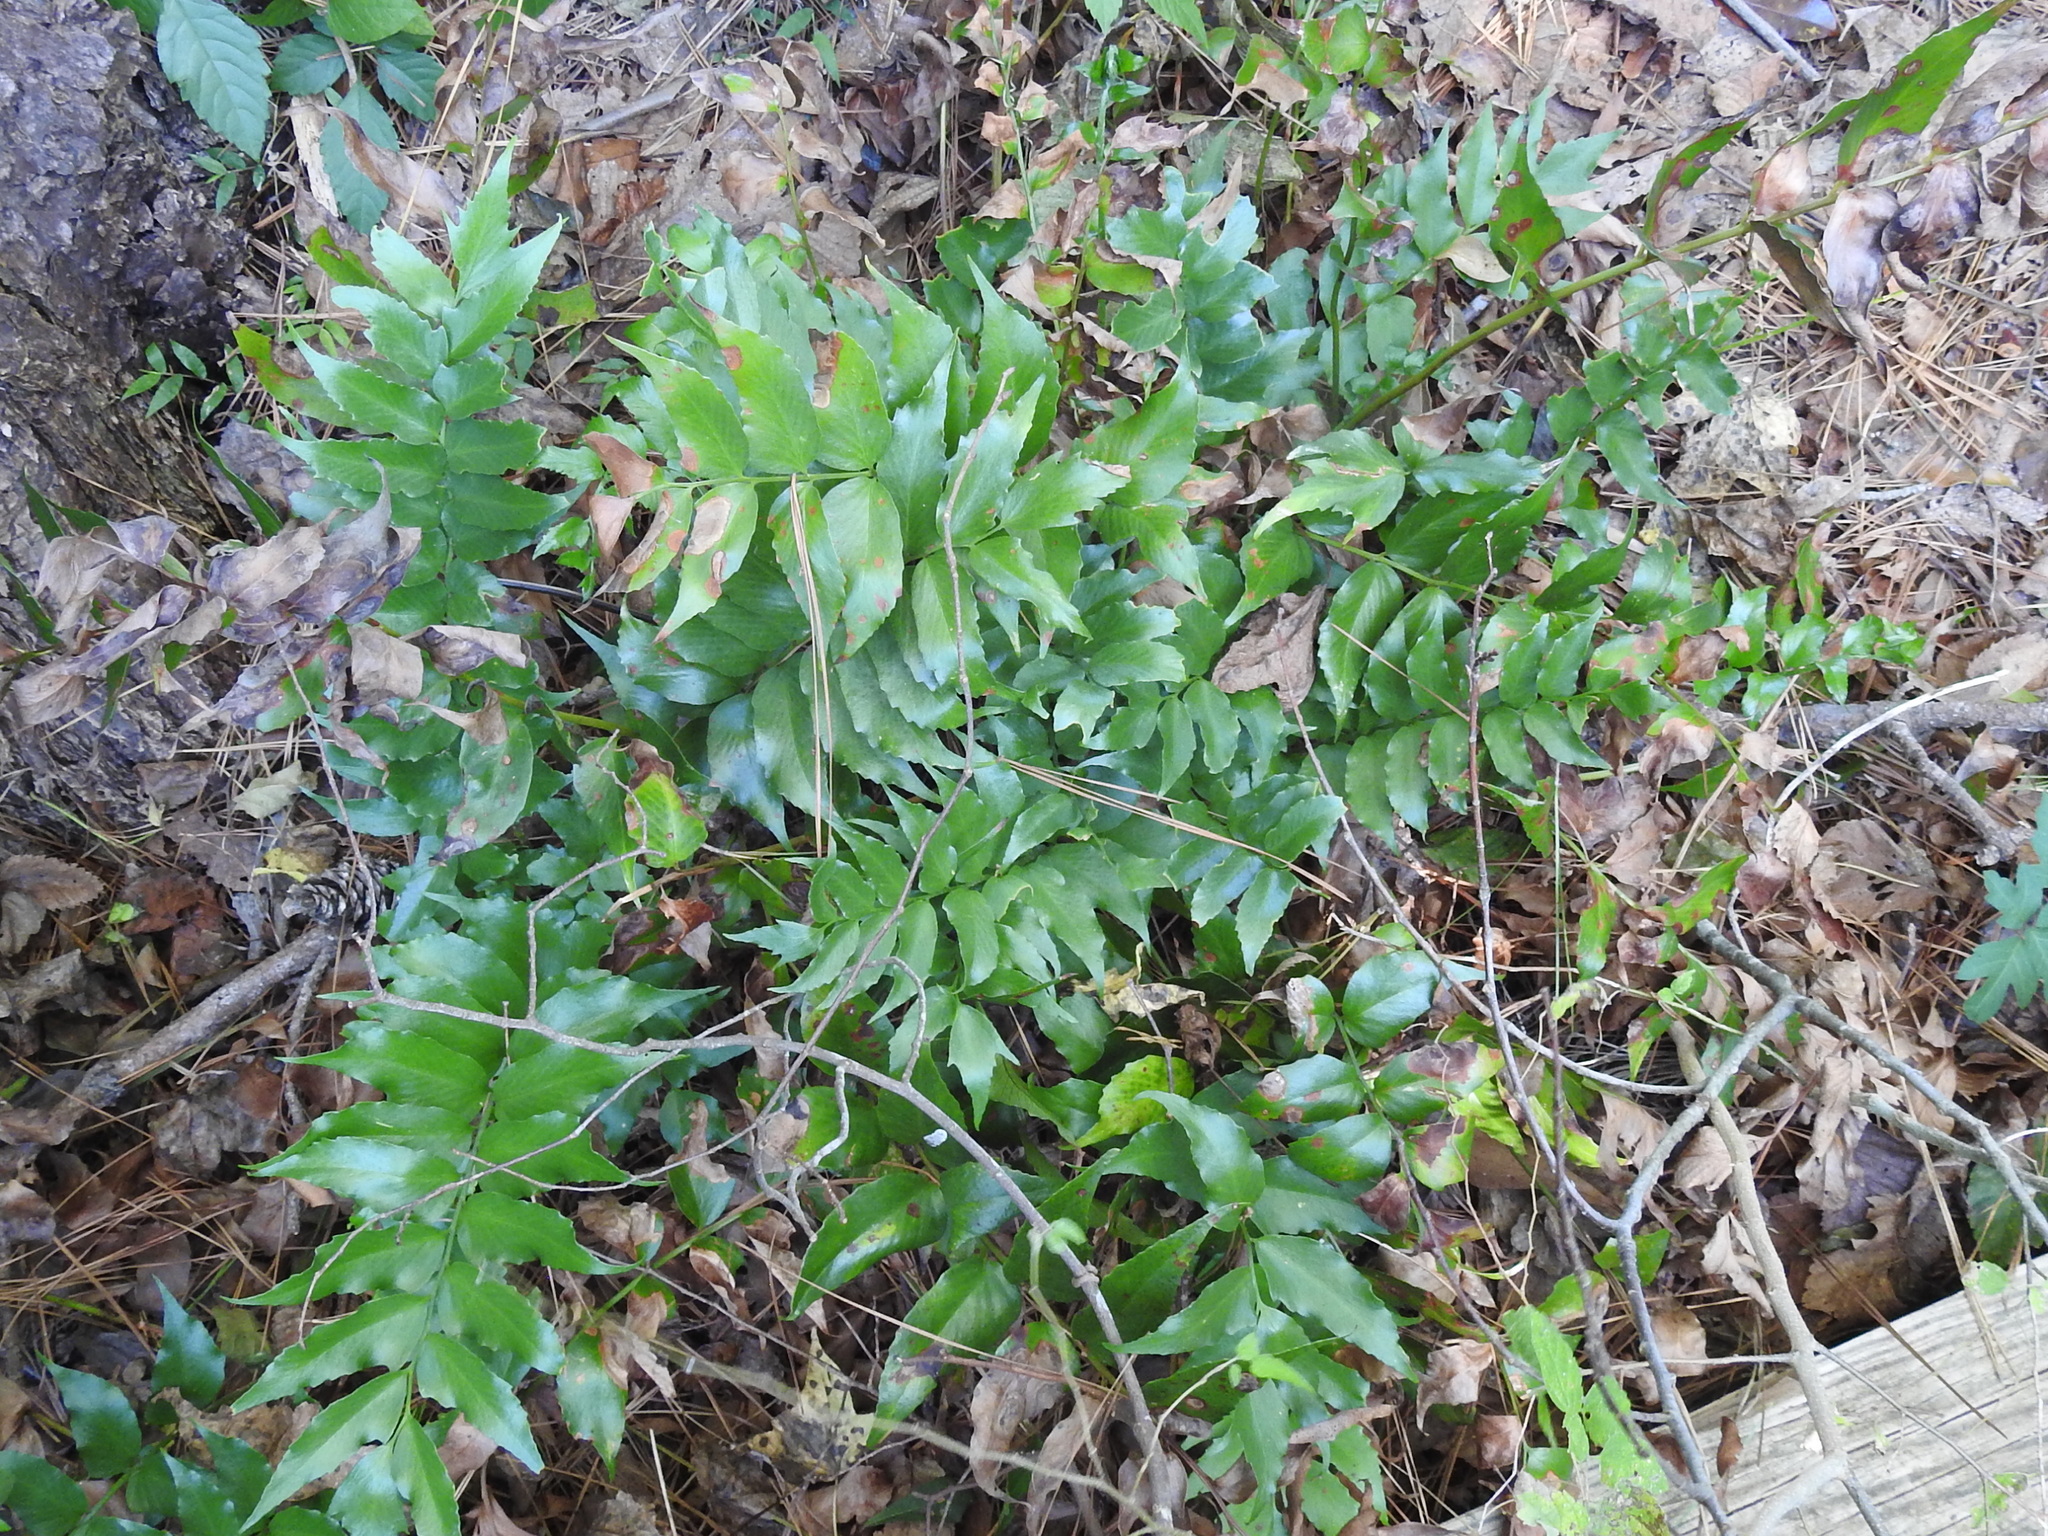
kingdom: Plantae
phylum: Tracheophyta
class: Polypodiopsida
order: Polypodiales
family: Dryopteridaceae
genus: Cyrtomium
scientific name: Cyrtomium falcatum
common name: House holly-fern
